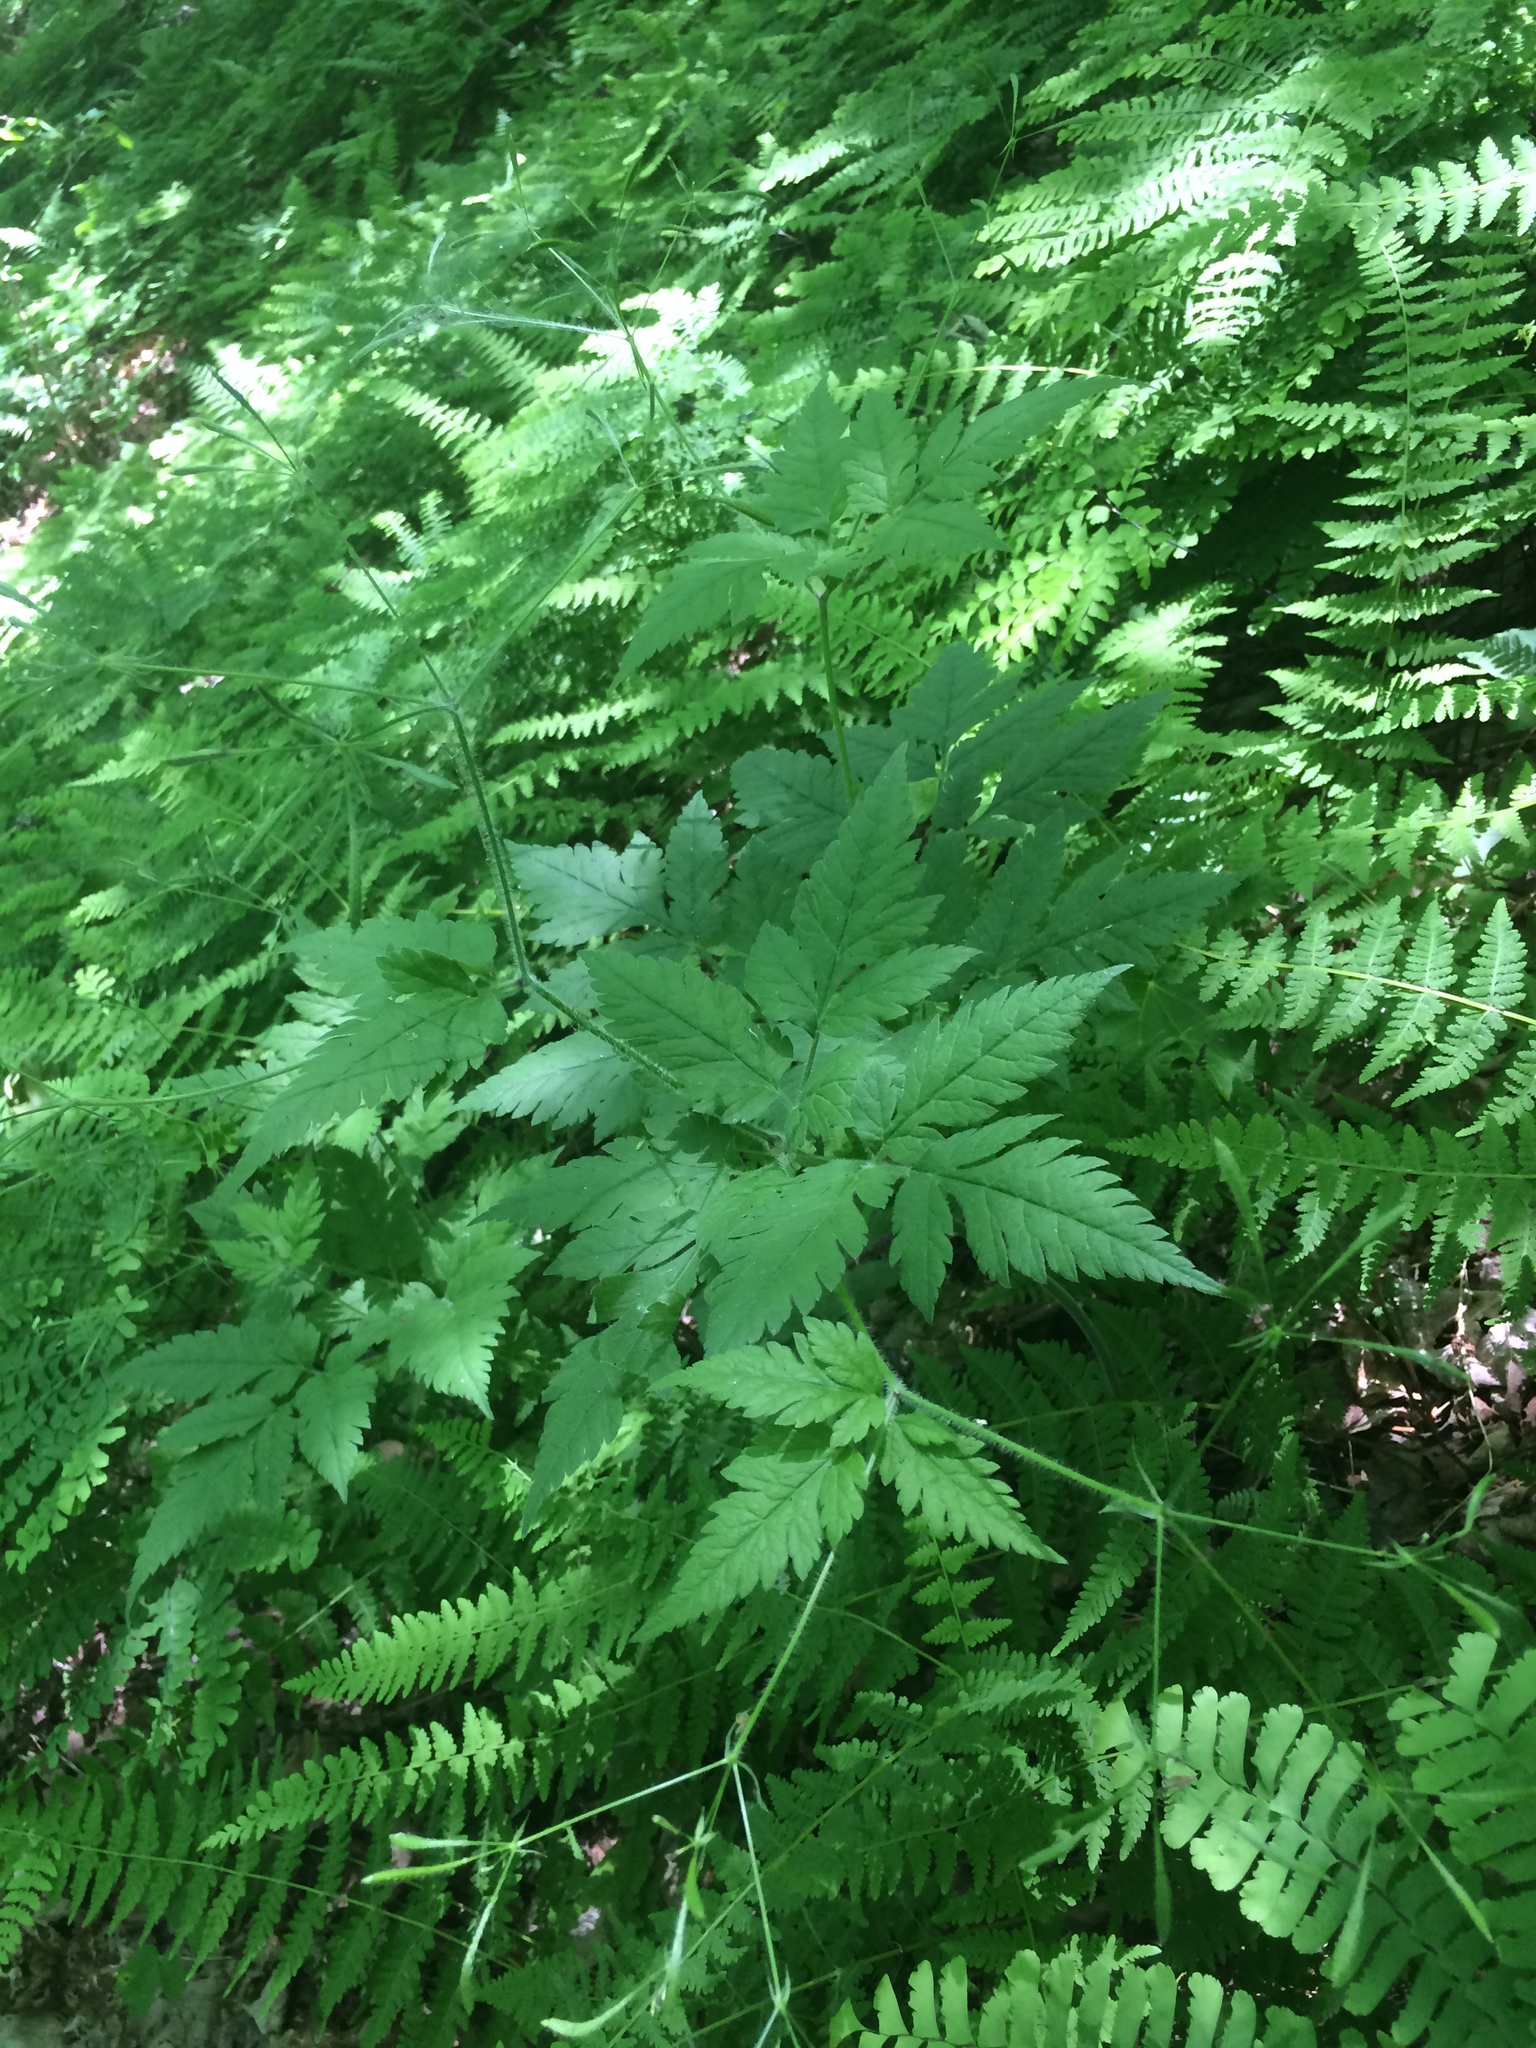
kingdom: Plantae
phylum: Tracheophyta
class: Magnoliopsida
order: Apiales
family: Apiaceae
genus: Osmorhiza
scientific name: Osmorhiza claytonii
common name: Hairy sweet cicely
